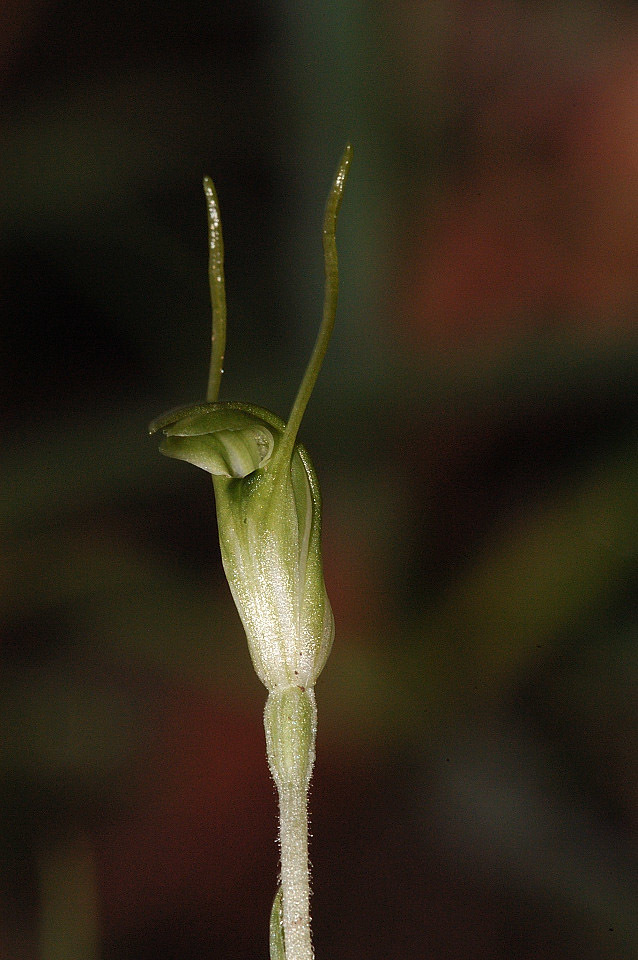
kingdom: Plantae
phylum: Tracheophyta
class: Liliopsida
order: Asparagales
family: Orchidaceae
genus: Pterostylis
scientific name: Pterostylis nana
